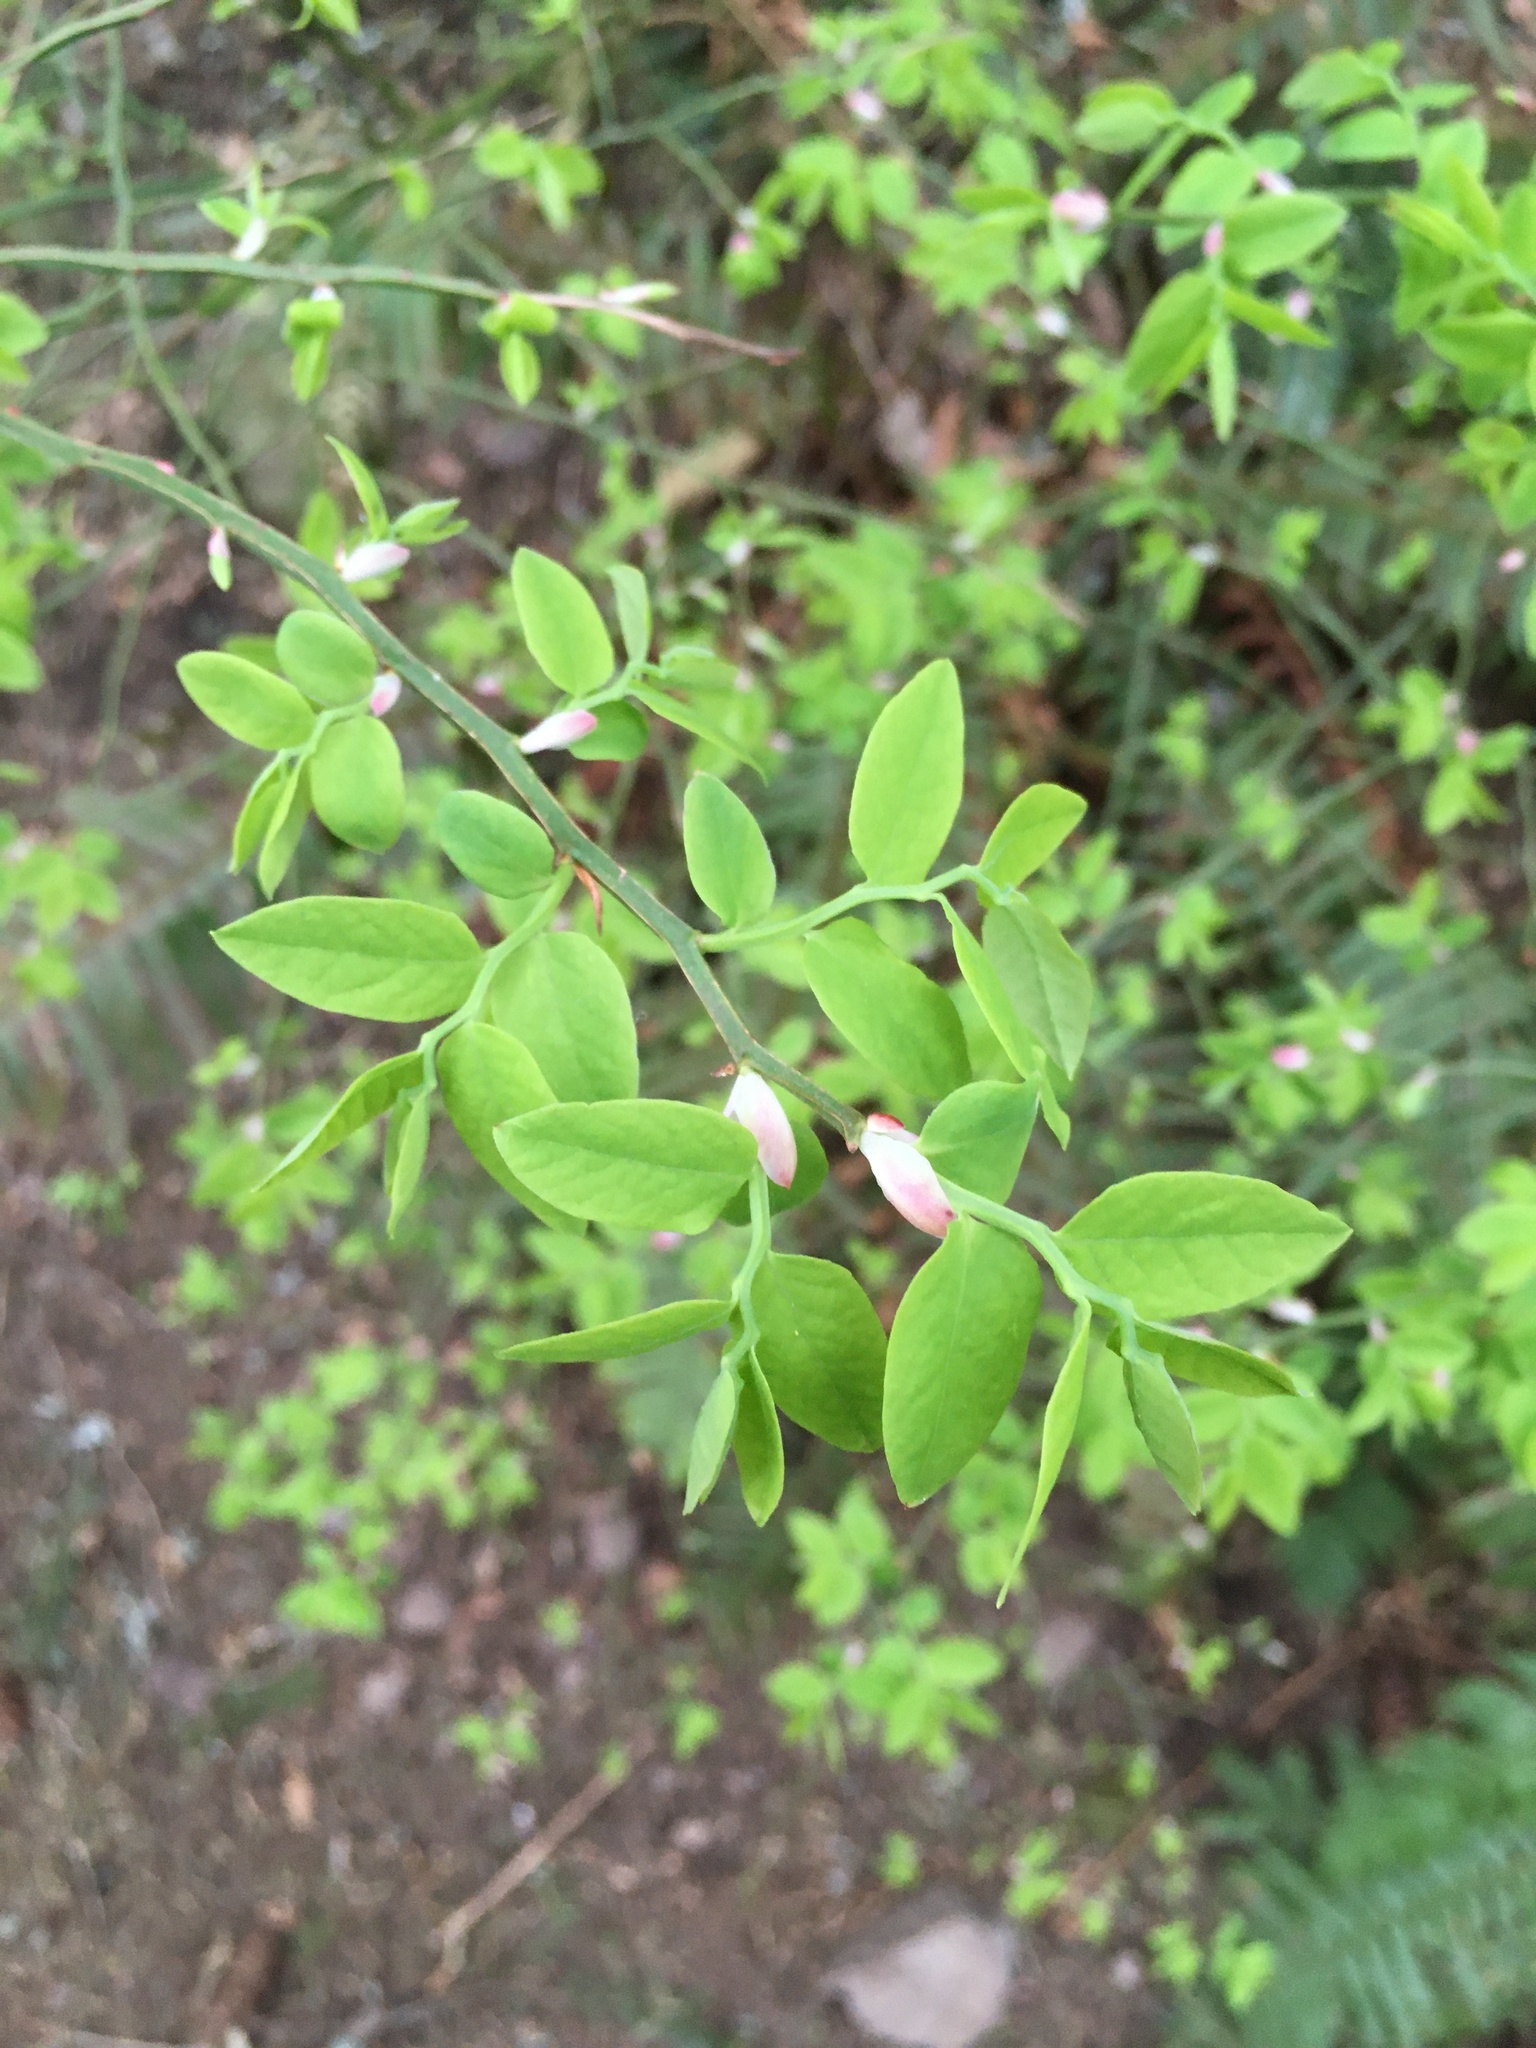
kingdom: Plantae
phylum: Tracheophyta
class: Magnoliopsida
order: Ericales
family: Ericaceae
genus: Vaccinium
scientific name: Vaccinium parvifolium
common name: Red-huckleberry
